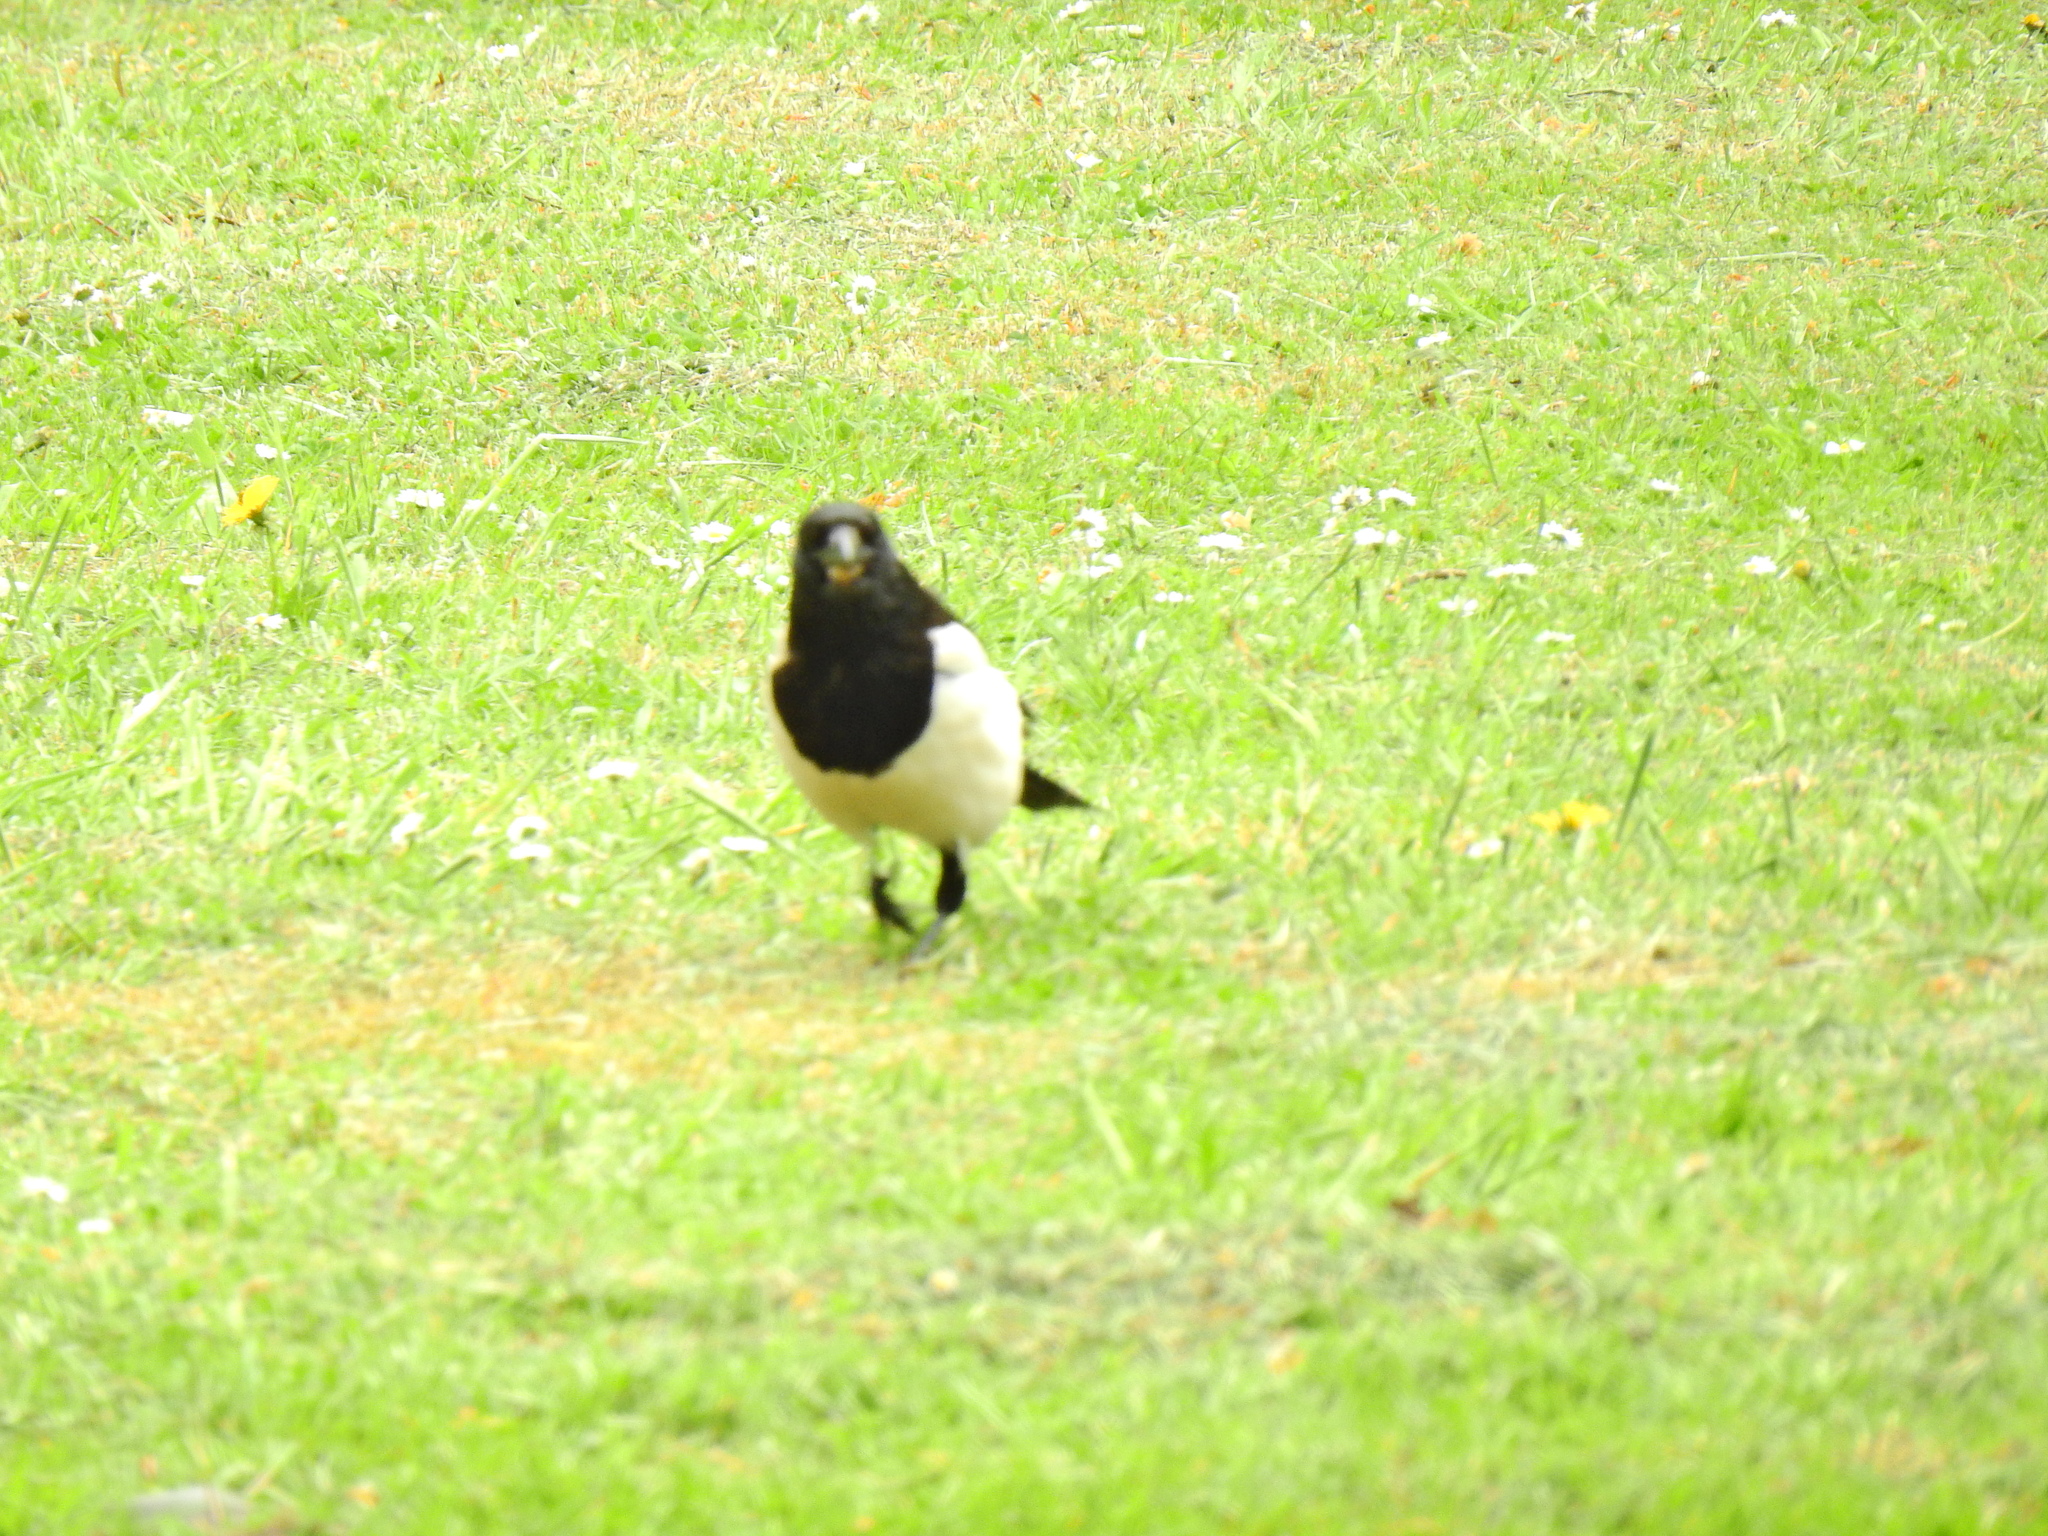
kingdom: Animalia
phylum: Chordata
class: Aves
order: Passeriformes
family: Corvidae
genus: Pica
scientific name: Pica pica
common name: Eurasian magpie
